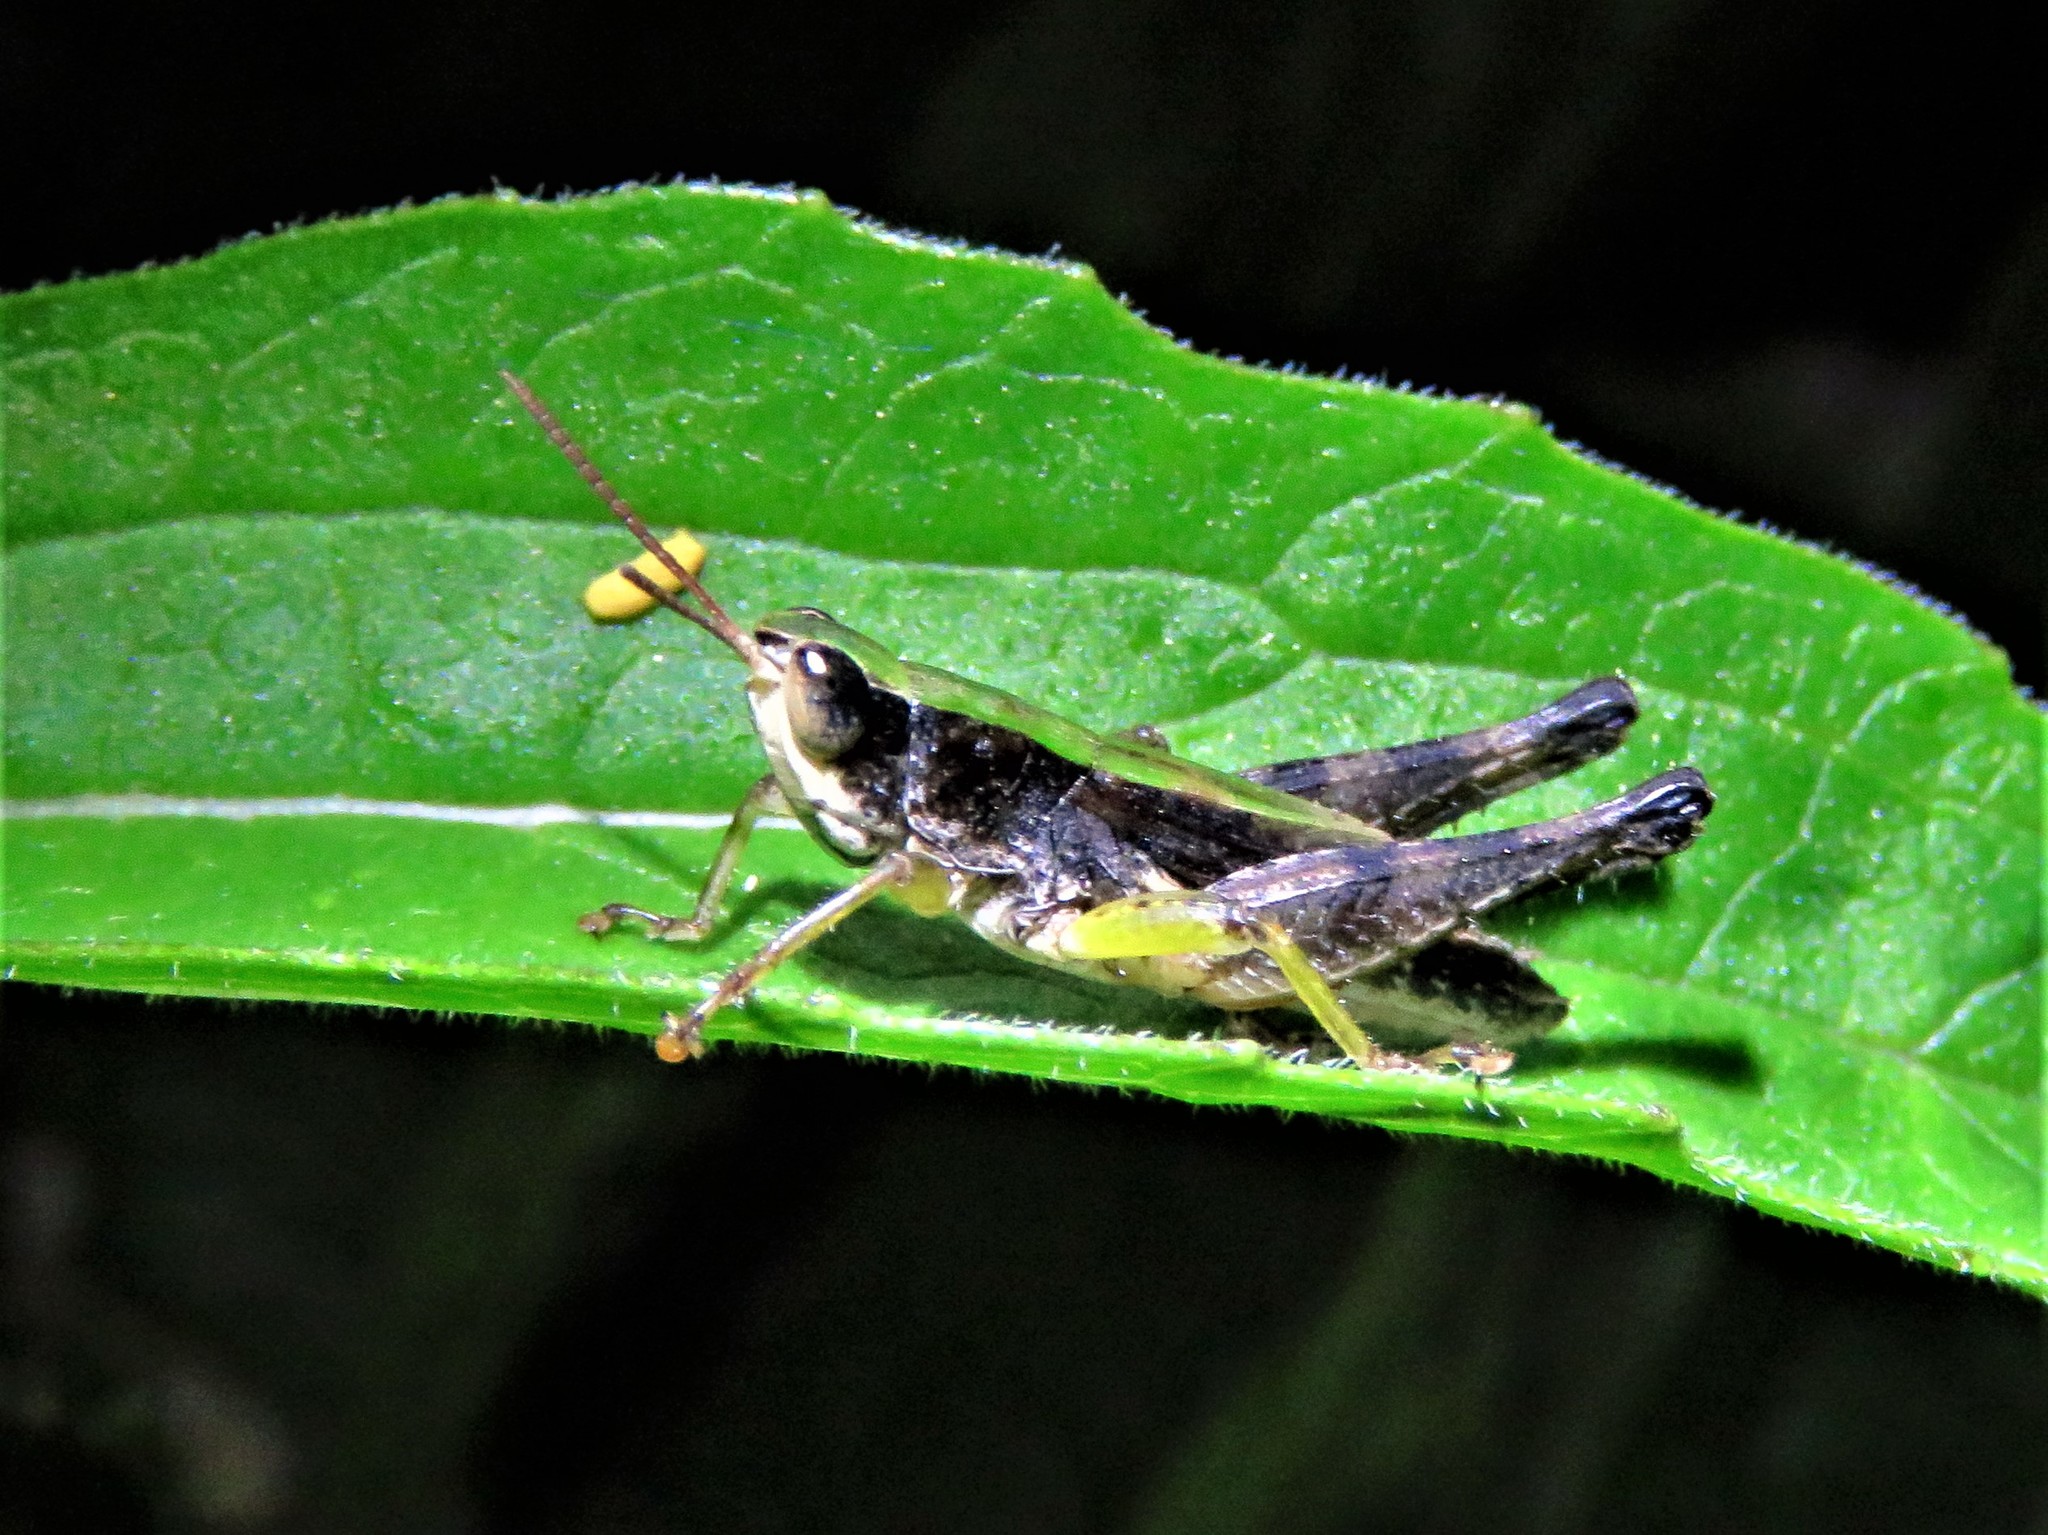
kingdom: Animalia
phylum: Arthropoda
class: Insecta
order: Orthoptera
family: Acrididae
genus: Dichromorpha
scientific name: Dichromorpha viridis
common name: Short-winged green grasshopper
